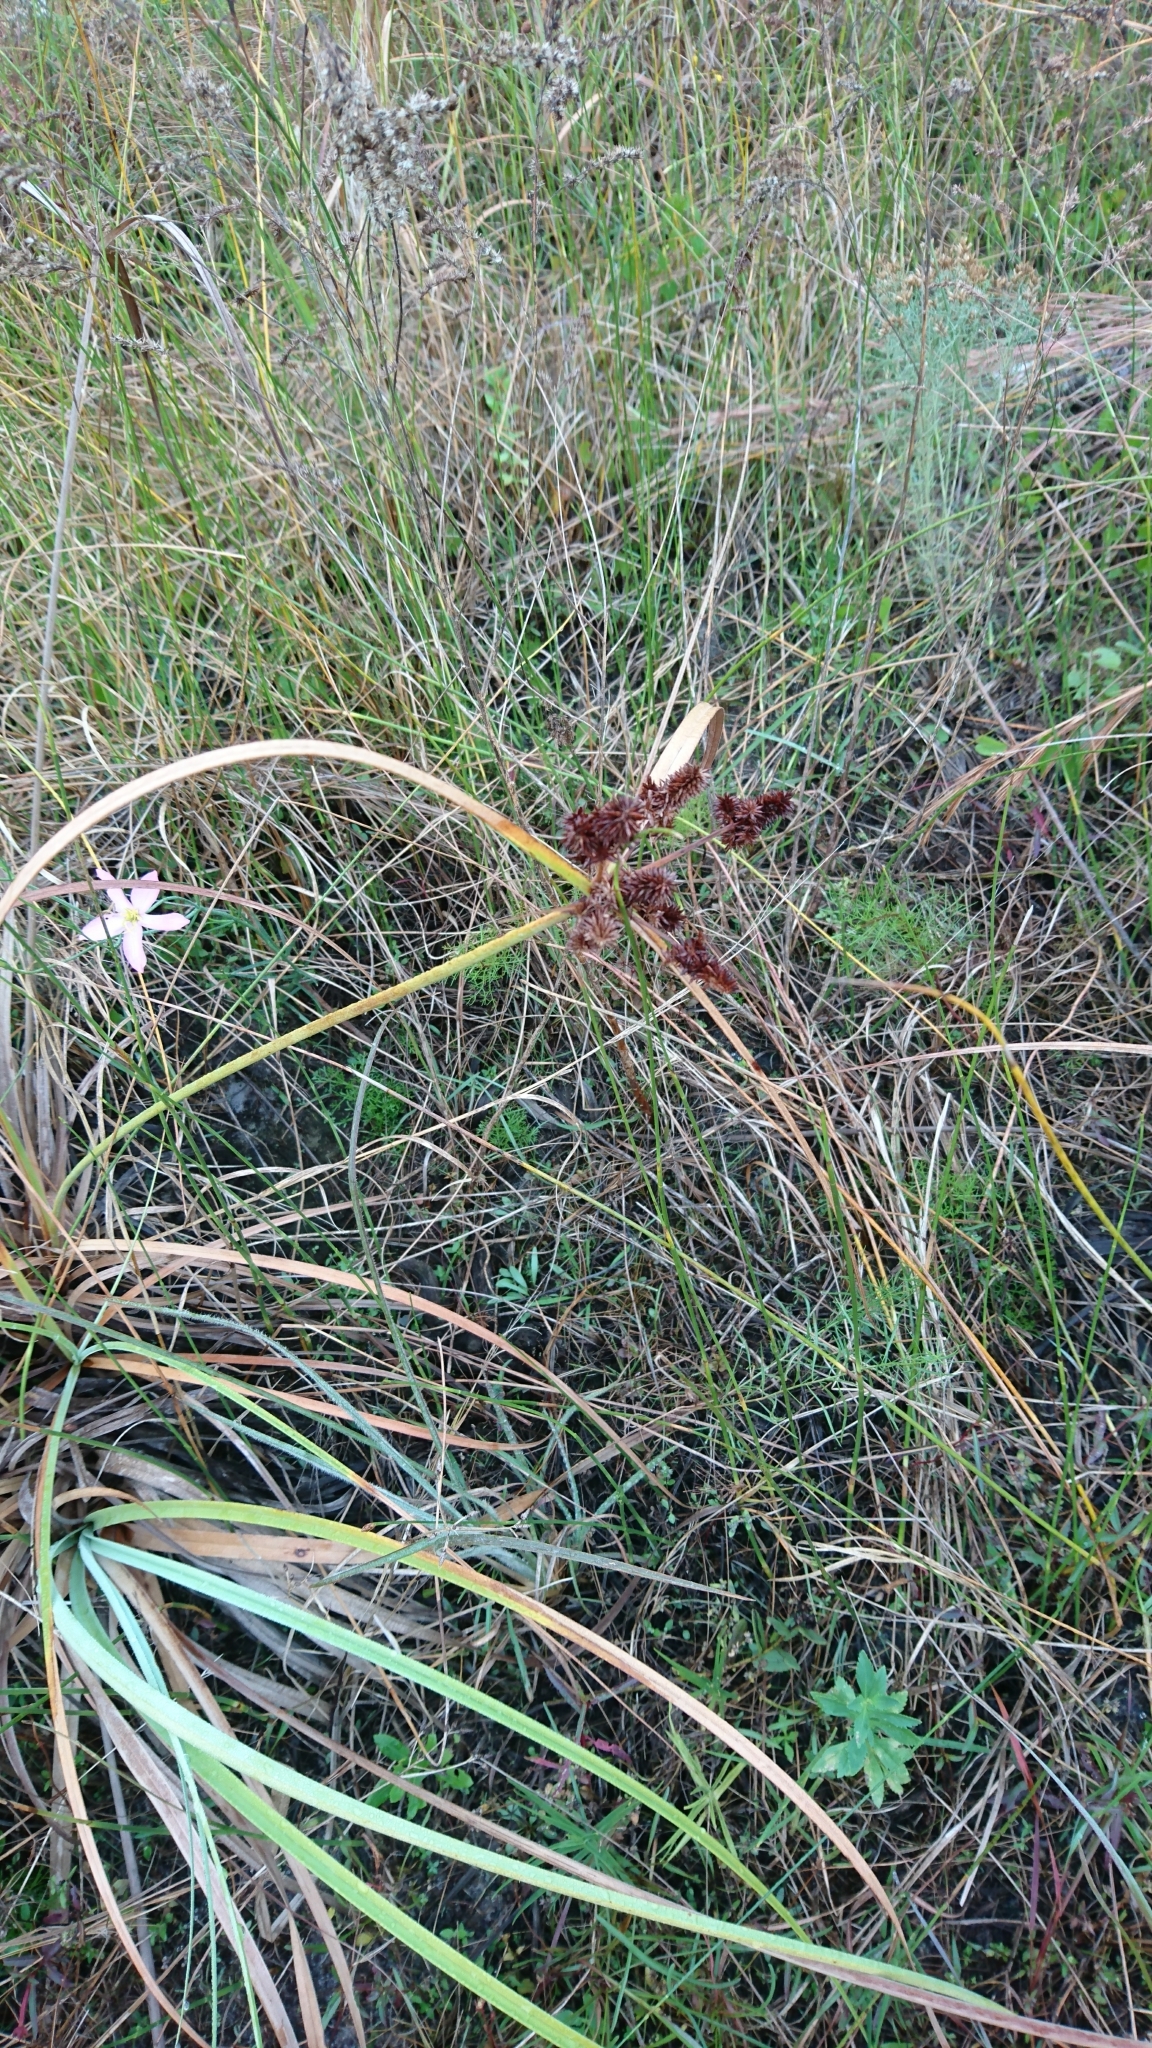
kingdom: Plantae
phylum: Tracheophyta
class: Liliopsida
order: Poales
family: Cyperaceae
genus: Cyperus
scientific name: Cyperus ligularis
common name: Swamp flat sedge
